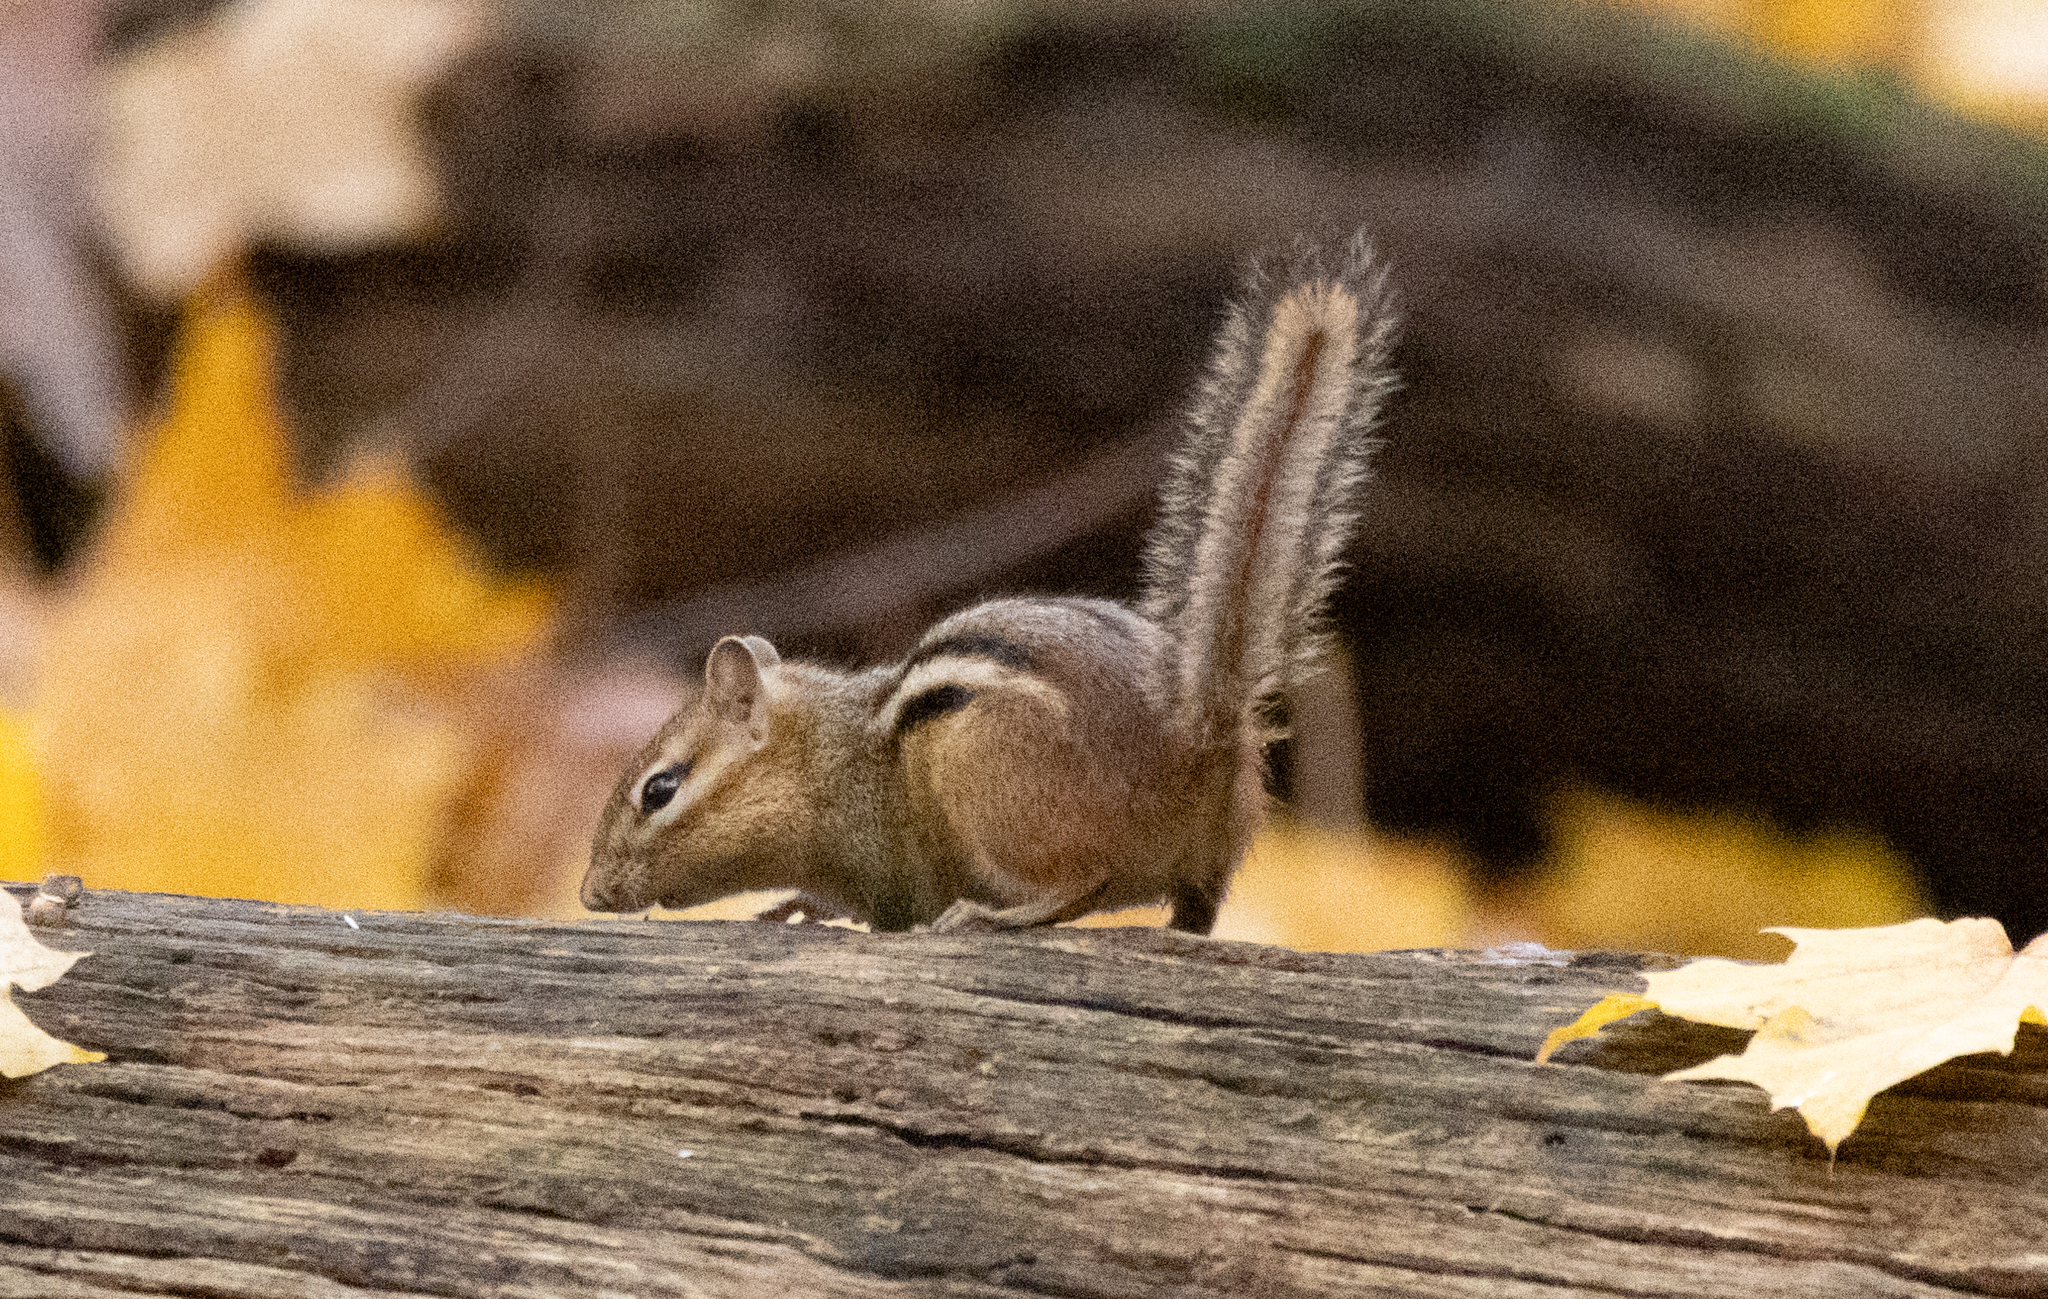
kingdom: Animalia
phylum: Chordata
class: Mammalia
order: Rodentia
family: Sciuridae
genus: Tamias
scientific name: Tamias striatus
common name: Eastern chipmunk
